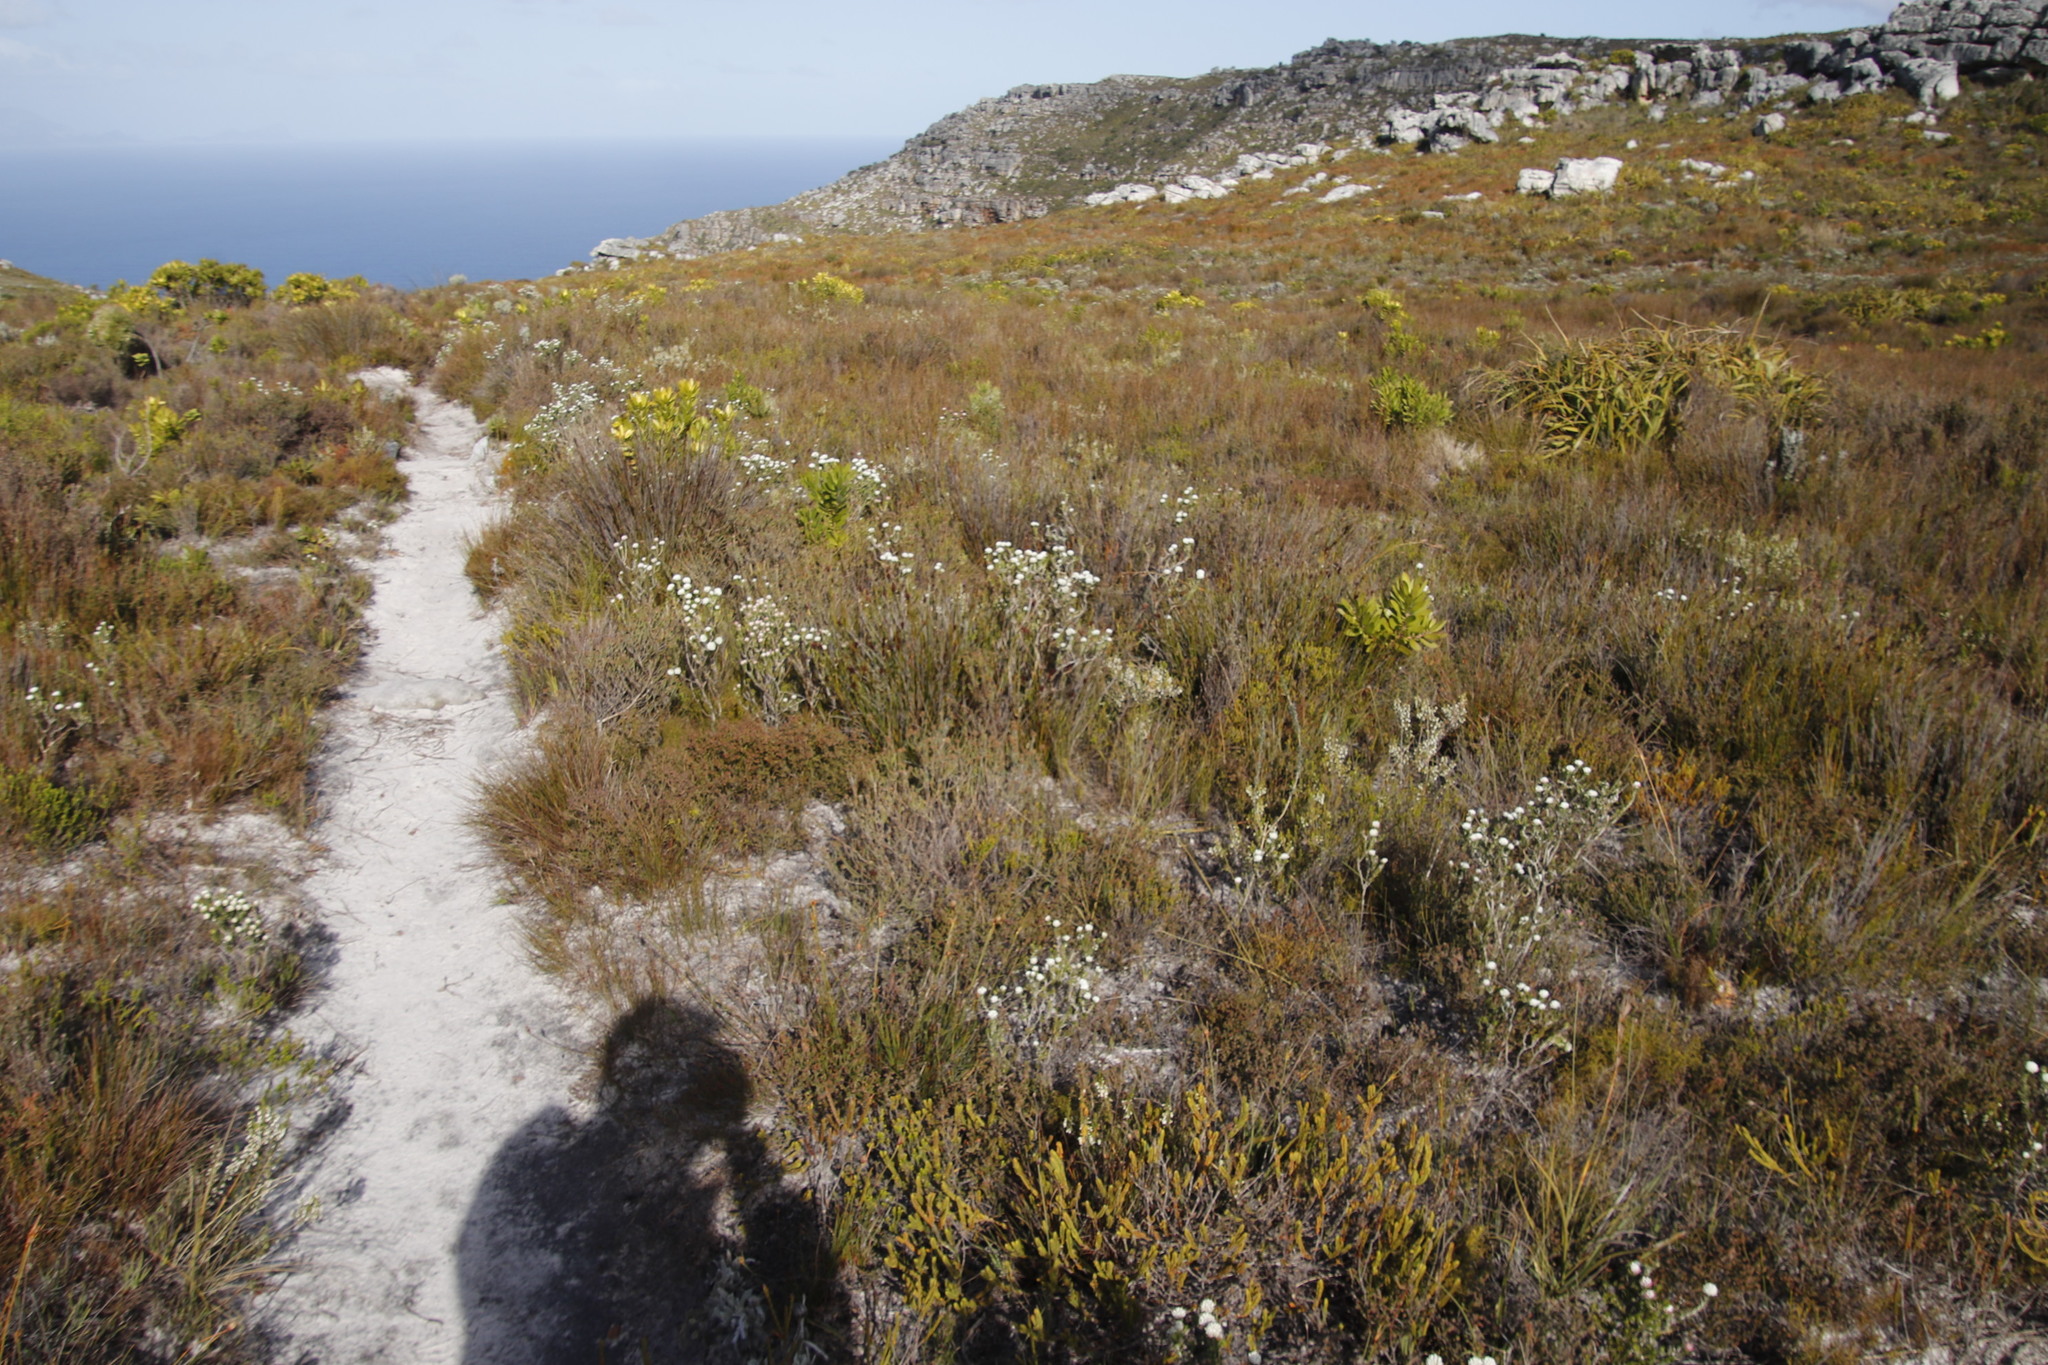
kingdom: Plantae
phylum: Tracheophyta
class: Magnoliopsida
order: Proteales
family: Proteaceae
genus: Leucadendron
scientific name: Leucadendron laureolum
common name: Golden sunshinebush
